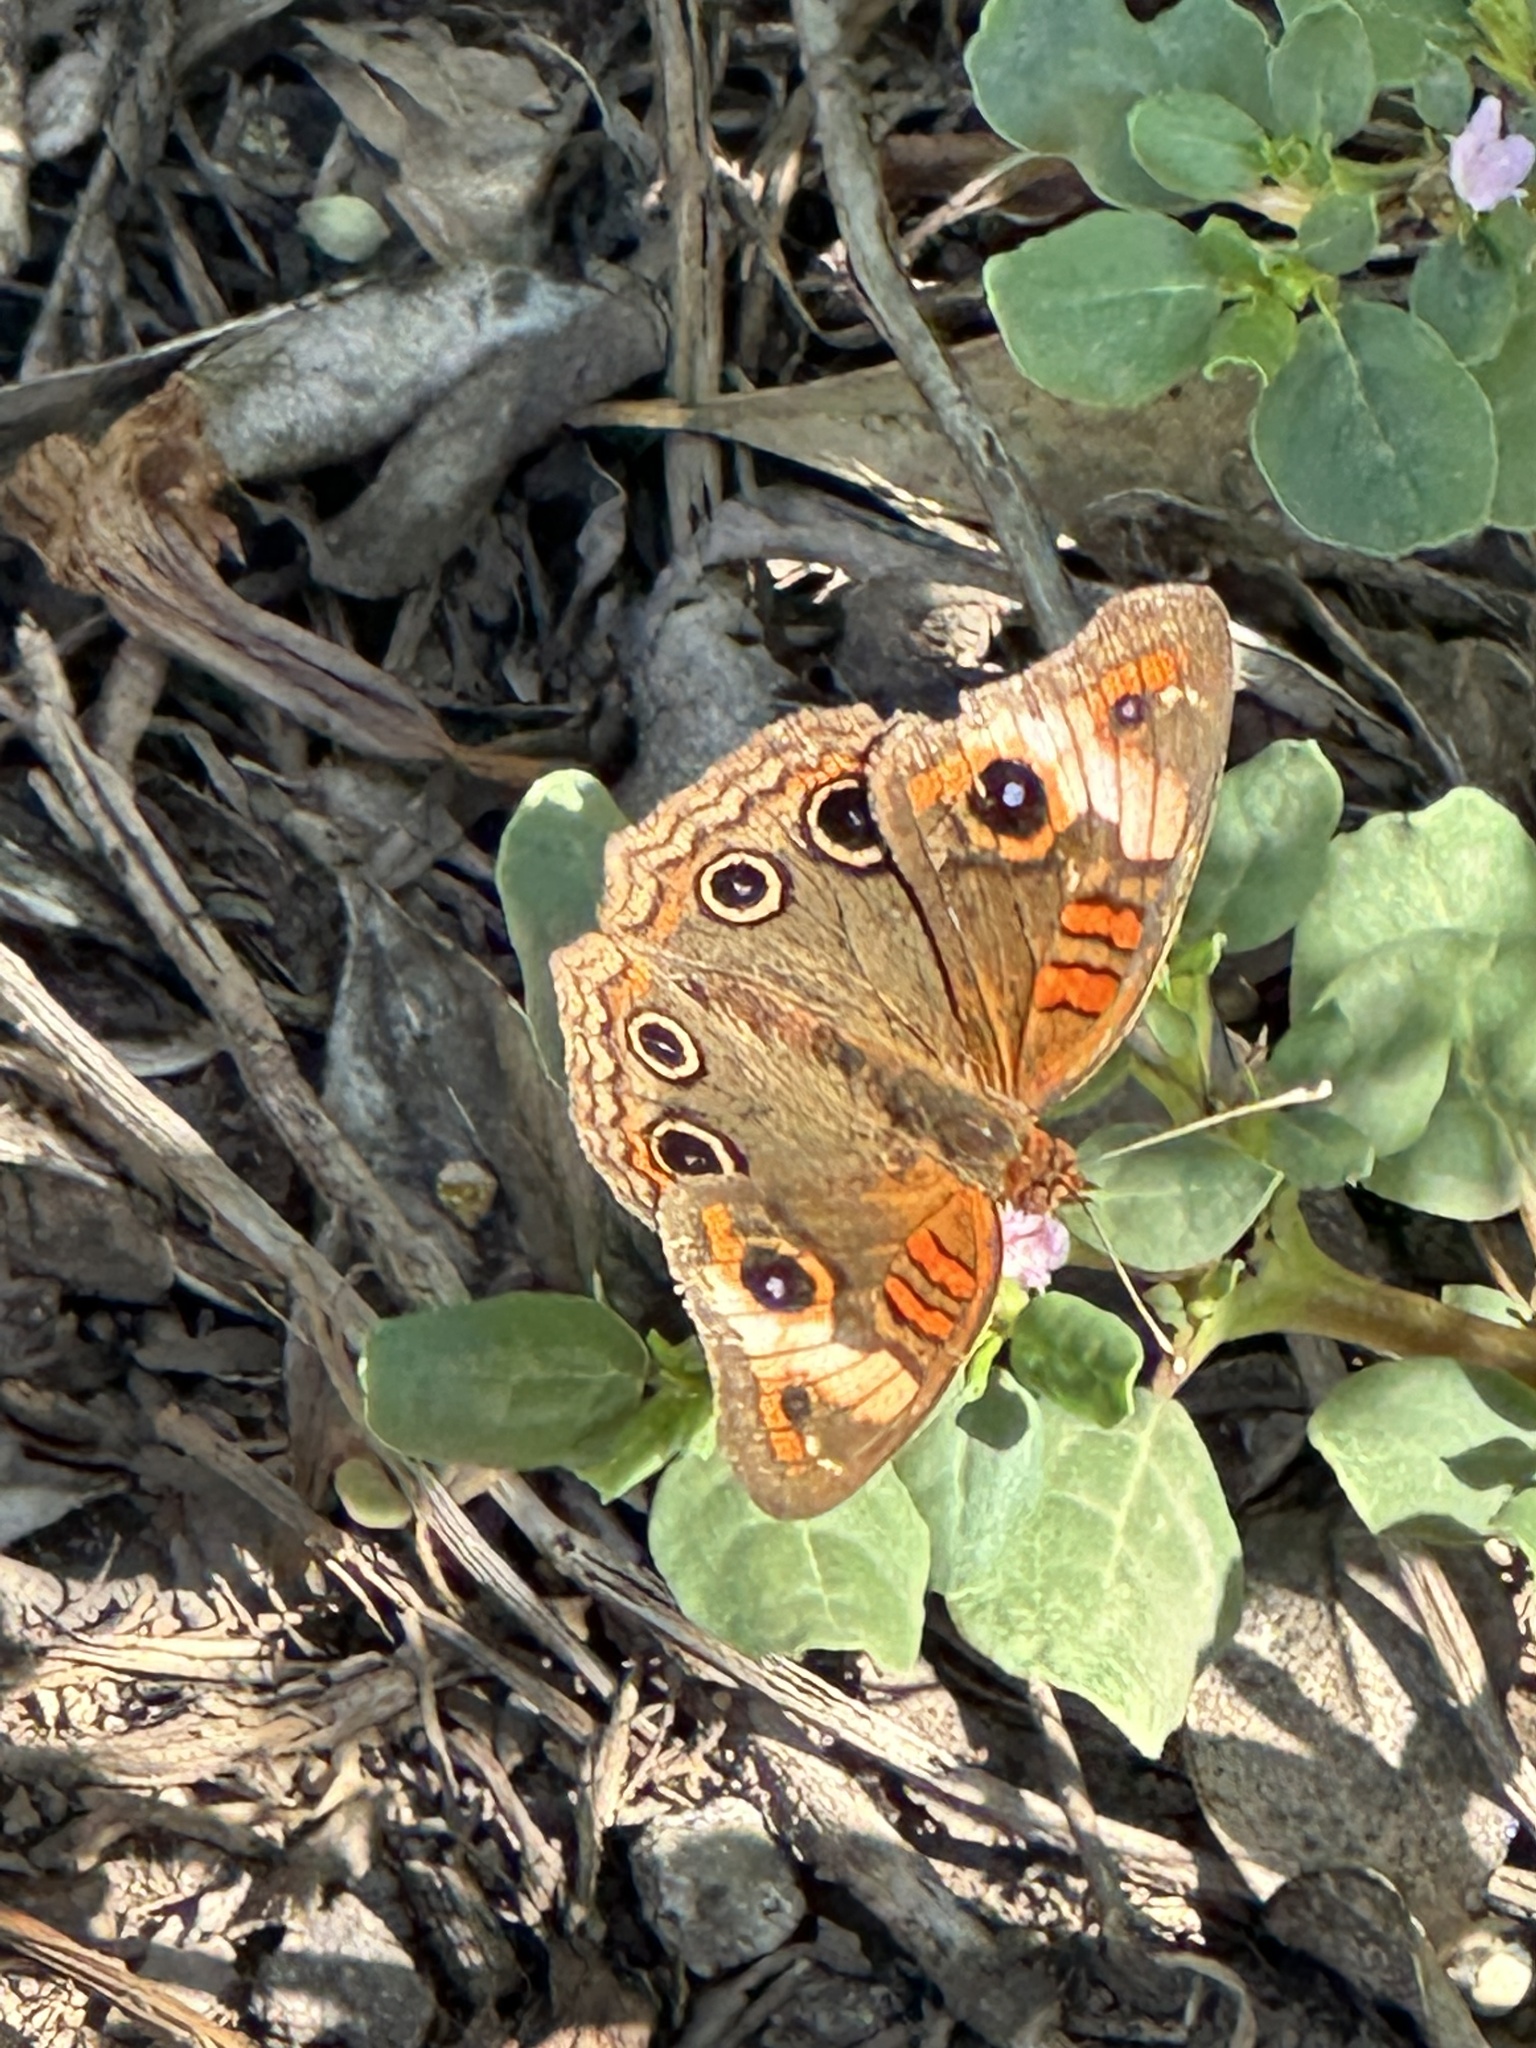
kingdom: Animalia
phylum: Arthropoda
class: Insecta
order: Lepidoptera
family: Nymphalidae
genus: Junonia
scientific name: Junonia lavinia
